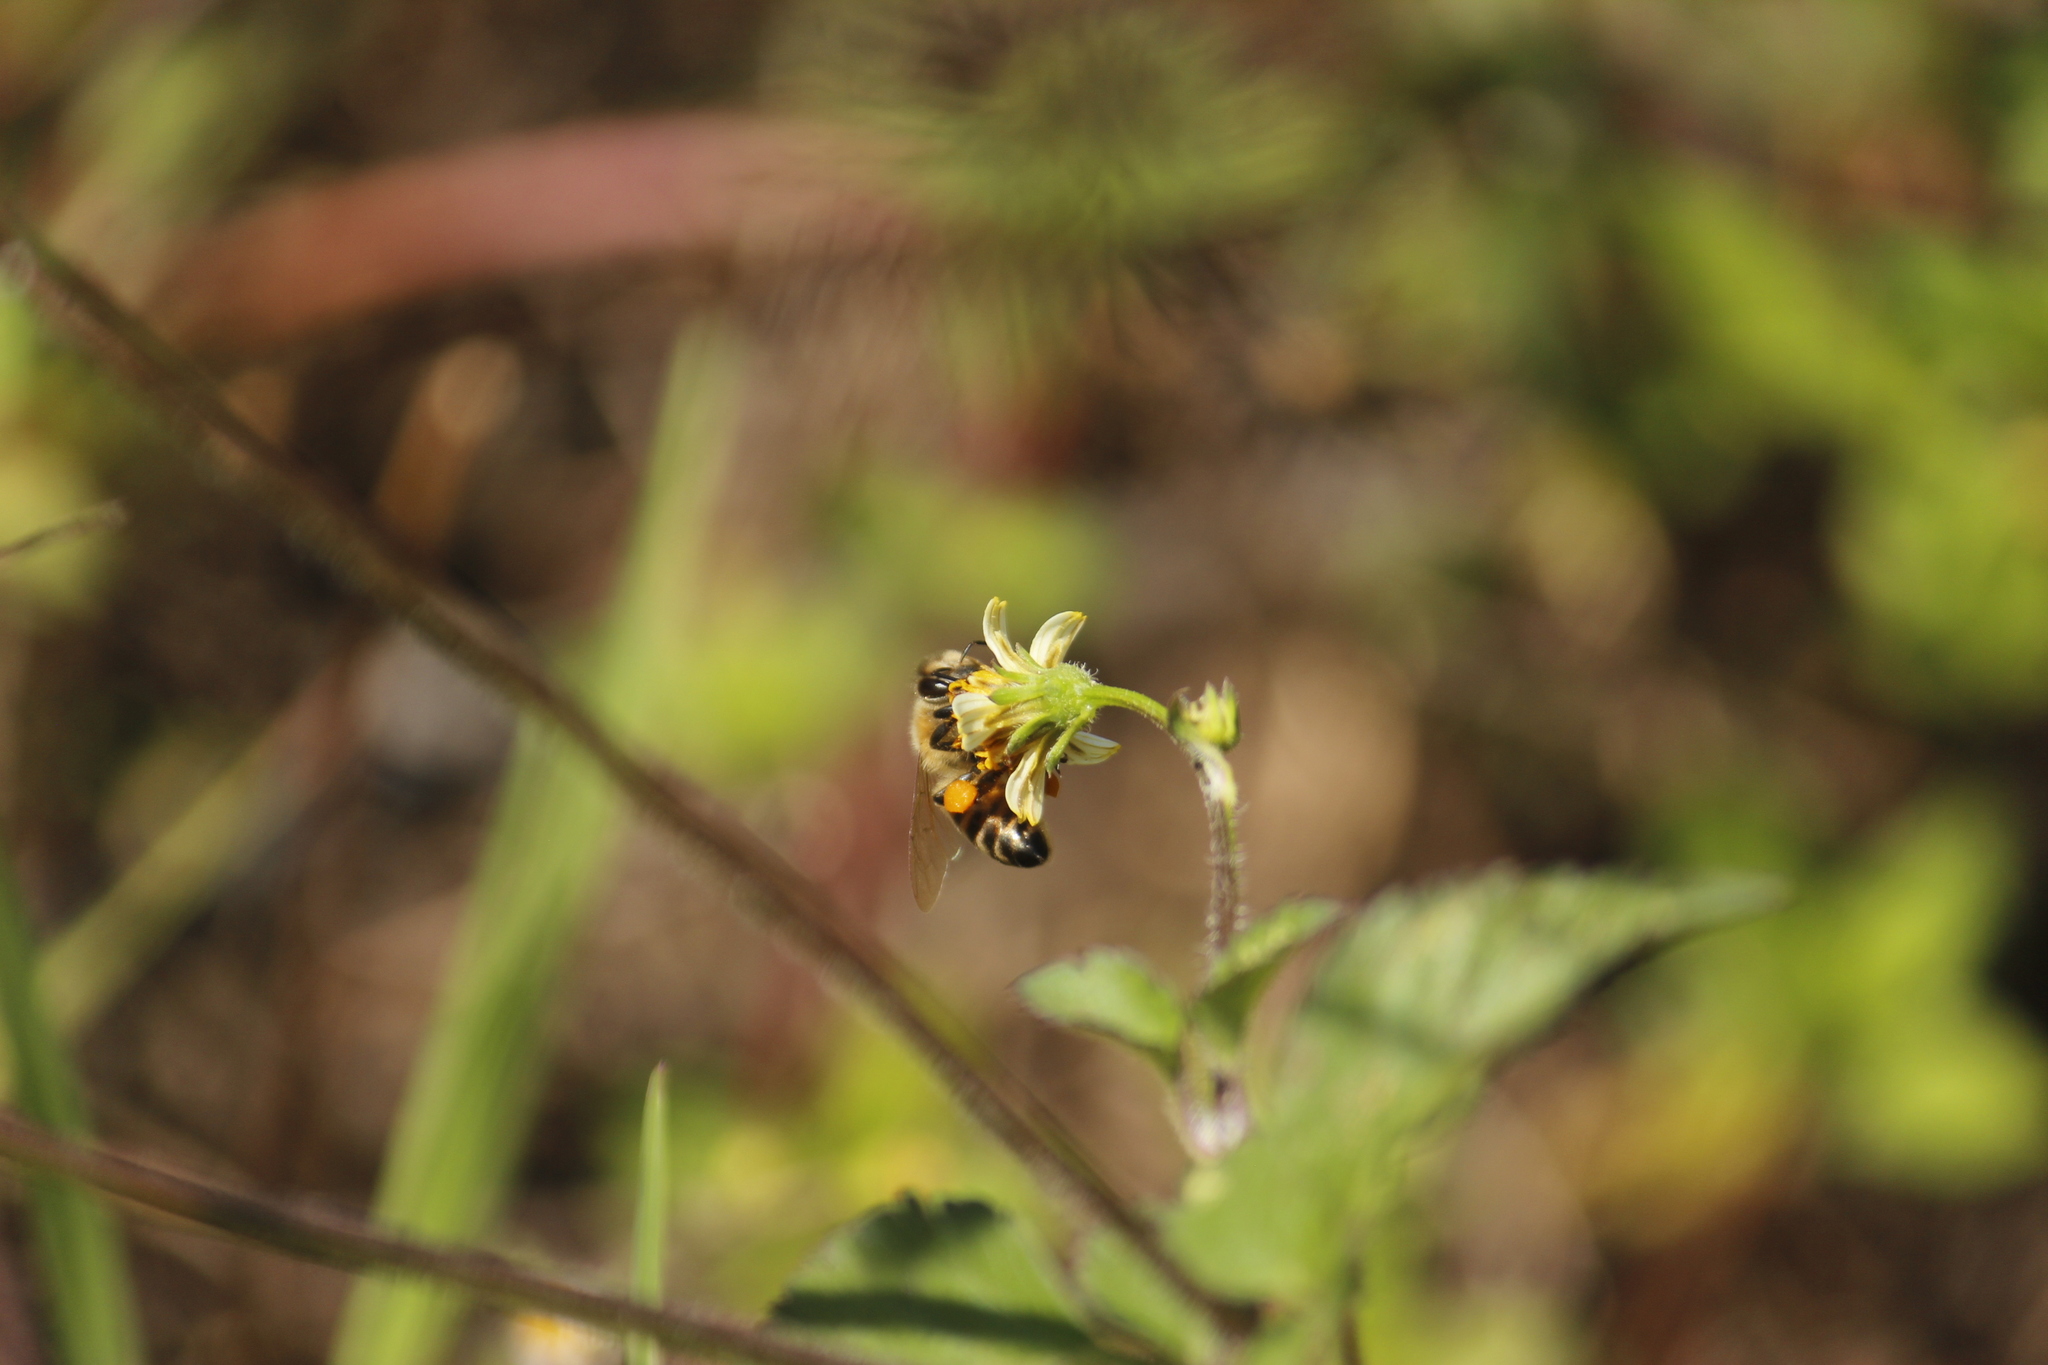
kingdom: Animalia
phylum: Arthropoda
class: Insecta
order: Hymenoptera
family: Apidae
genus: Apis
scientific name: Apis mellifera
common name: Honey bee
